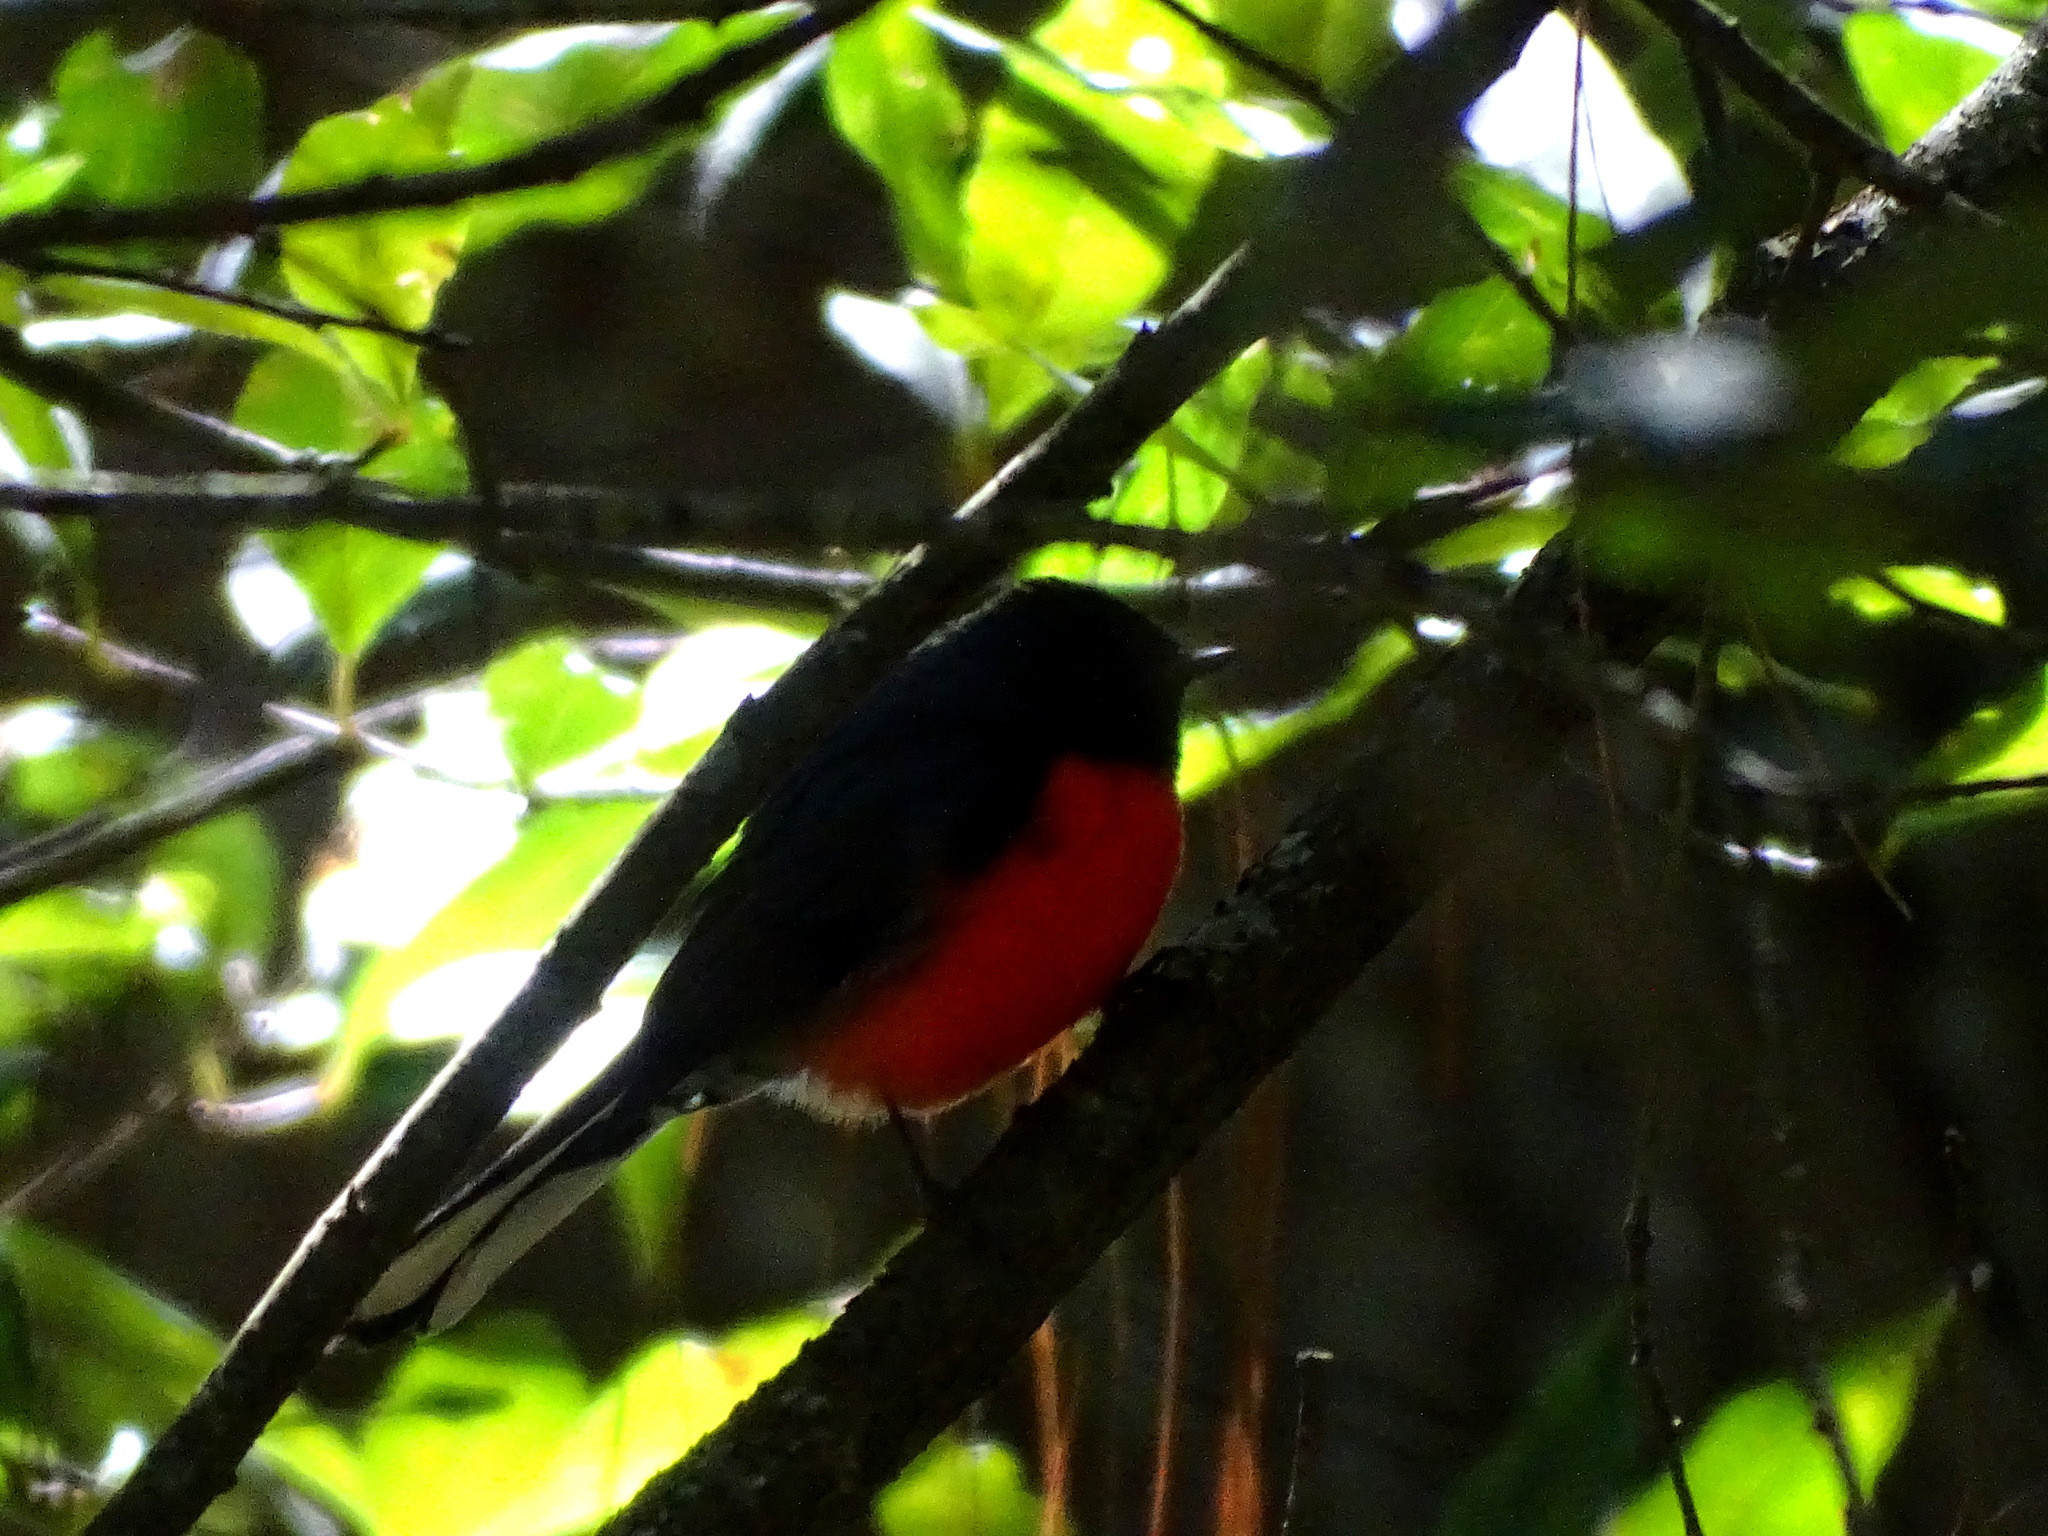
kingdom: Animalia
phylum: Chordata
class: Aves
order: Passeriformes
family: Parulidae
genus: Myioborus
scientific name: Myioborus miniatus
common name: Slate-throated redstart
